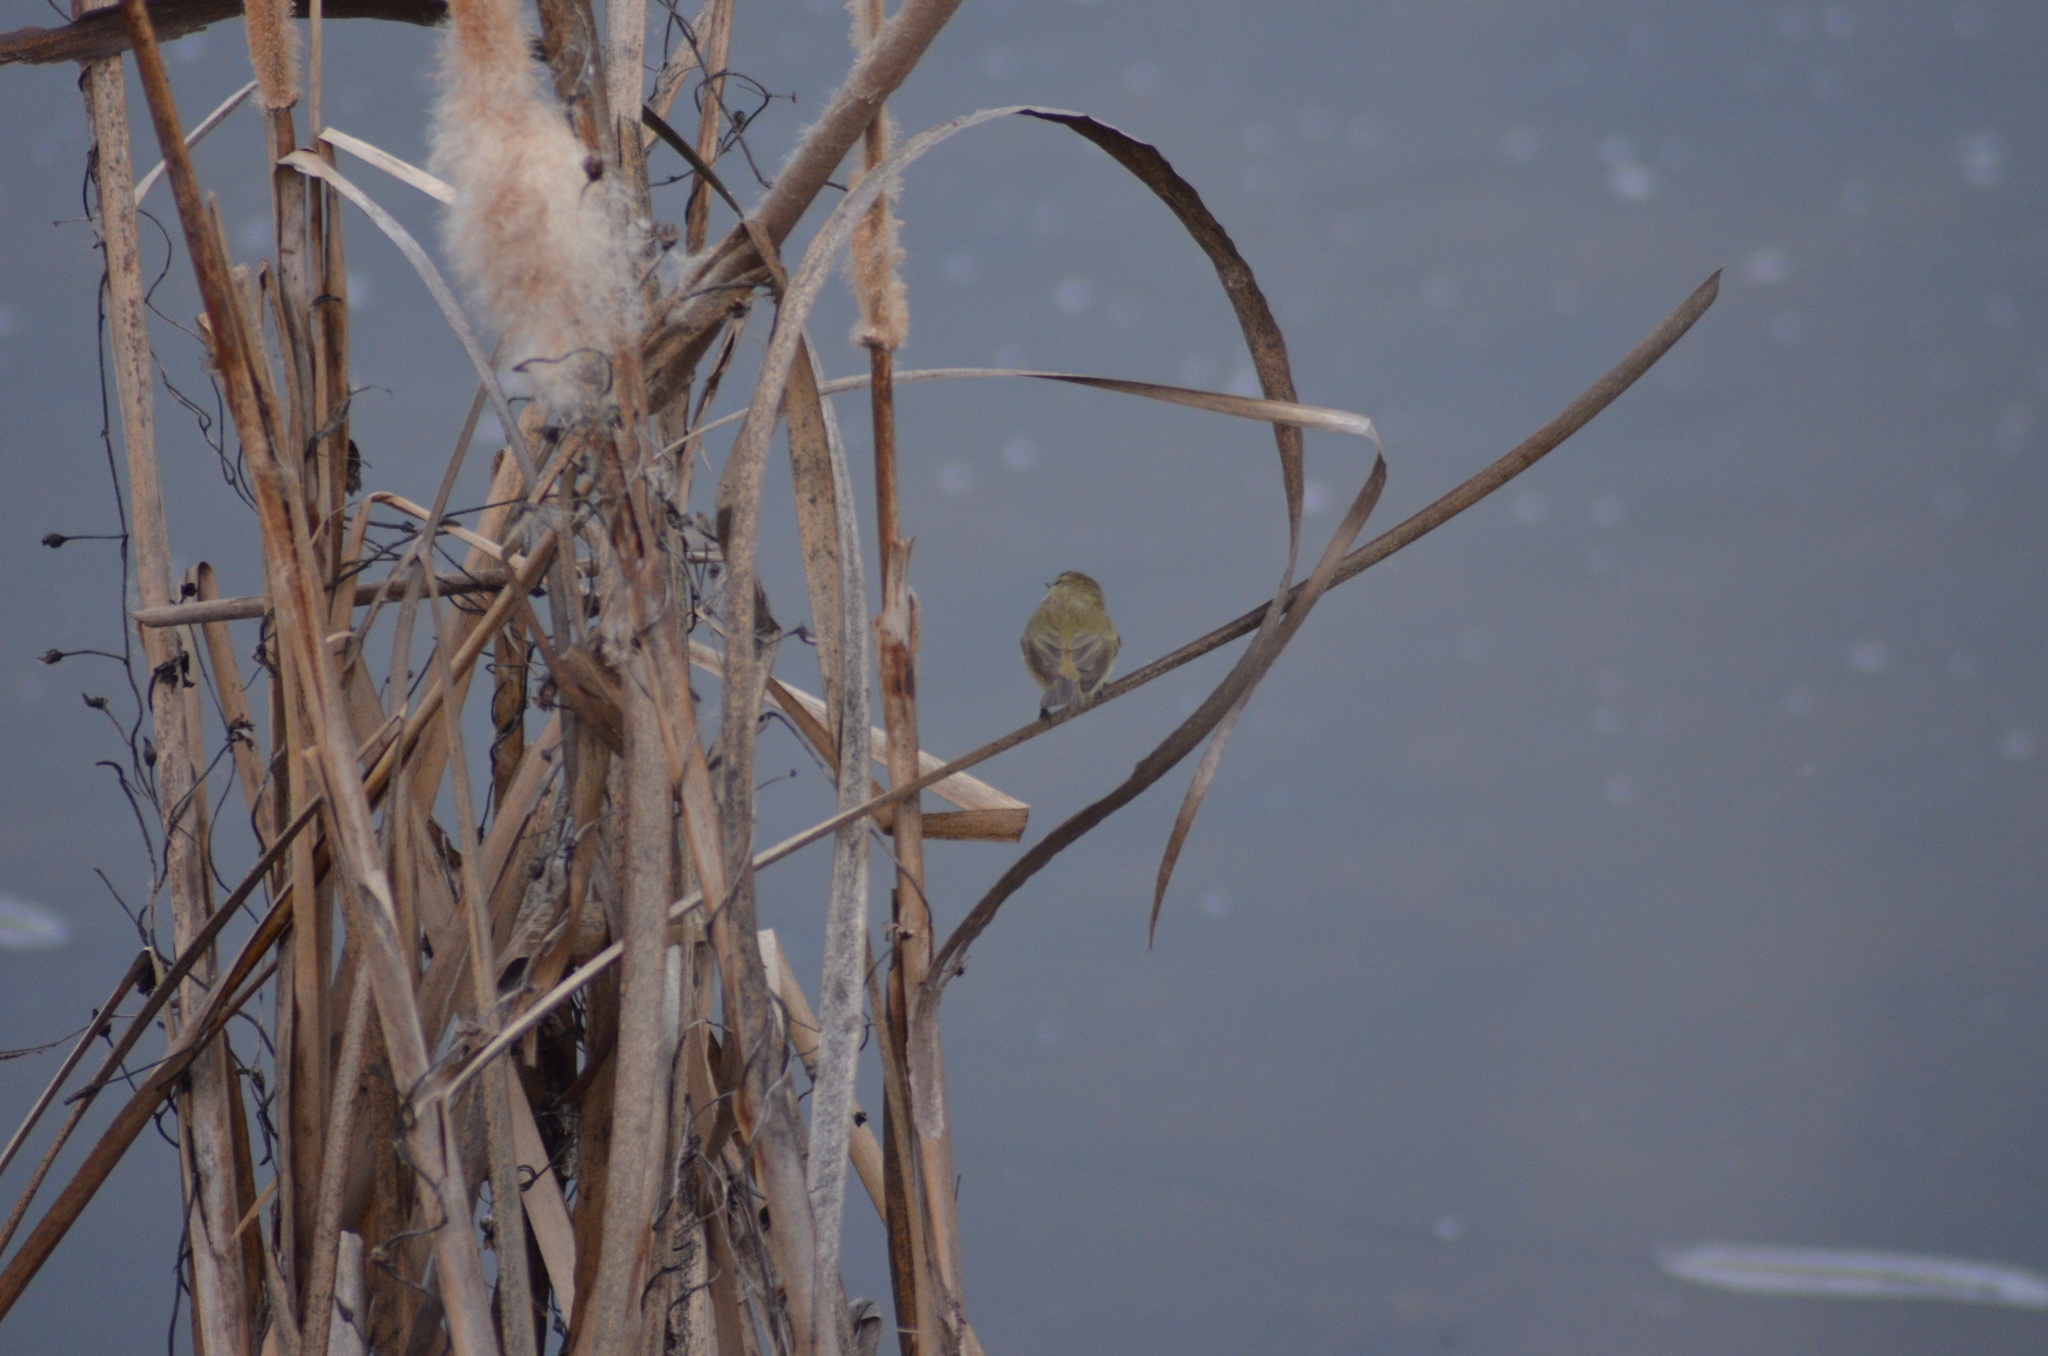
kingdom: Animalia
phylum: Chordata
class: Aves
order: Passeriformes
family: Phylloscopidae
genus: Phylloscopus
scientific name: Phylloscopus collybita
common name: Common chiffchaff
